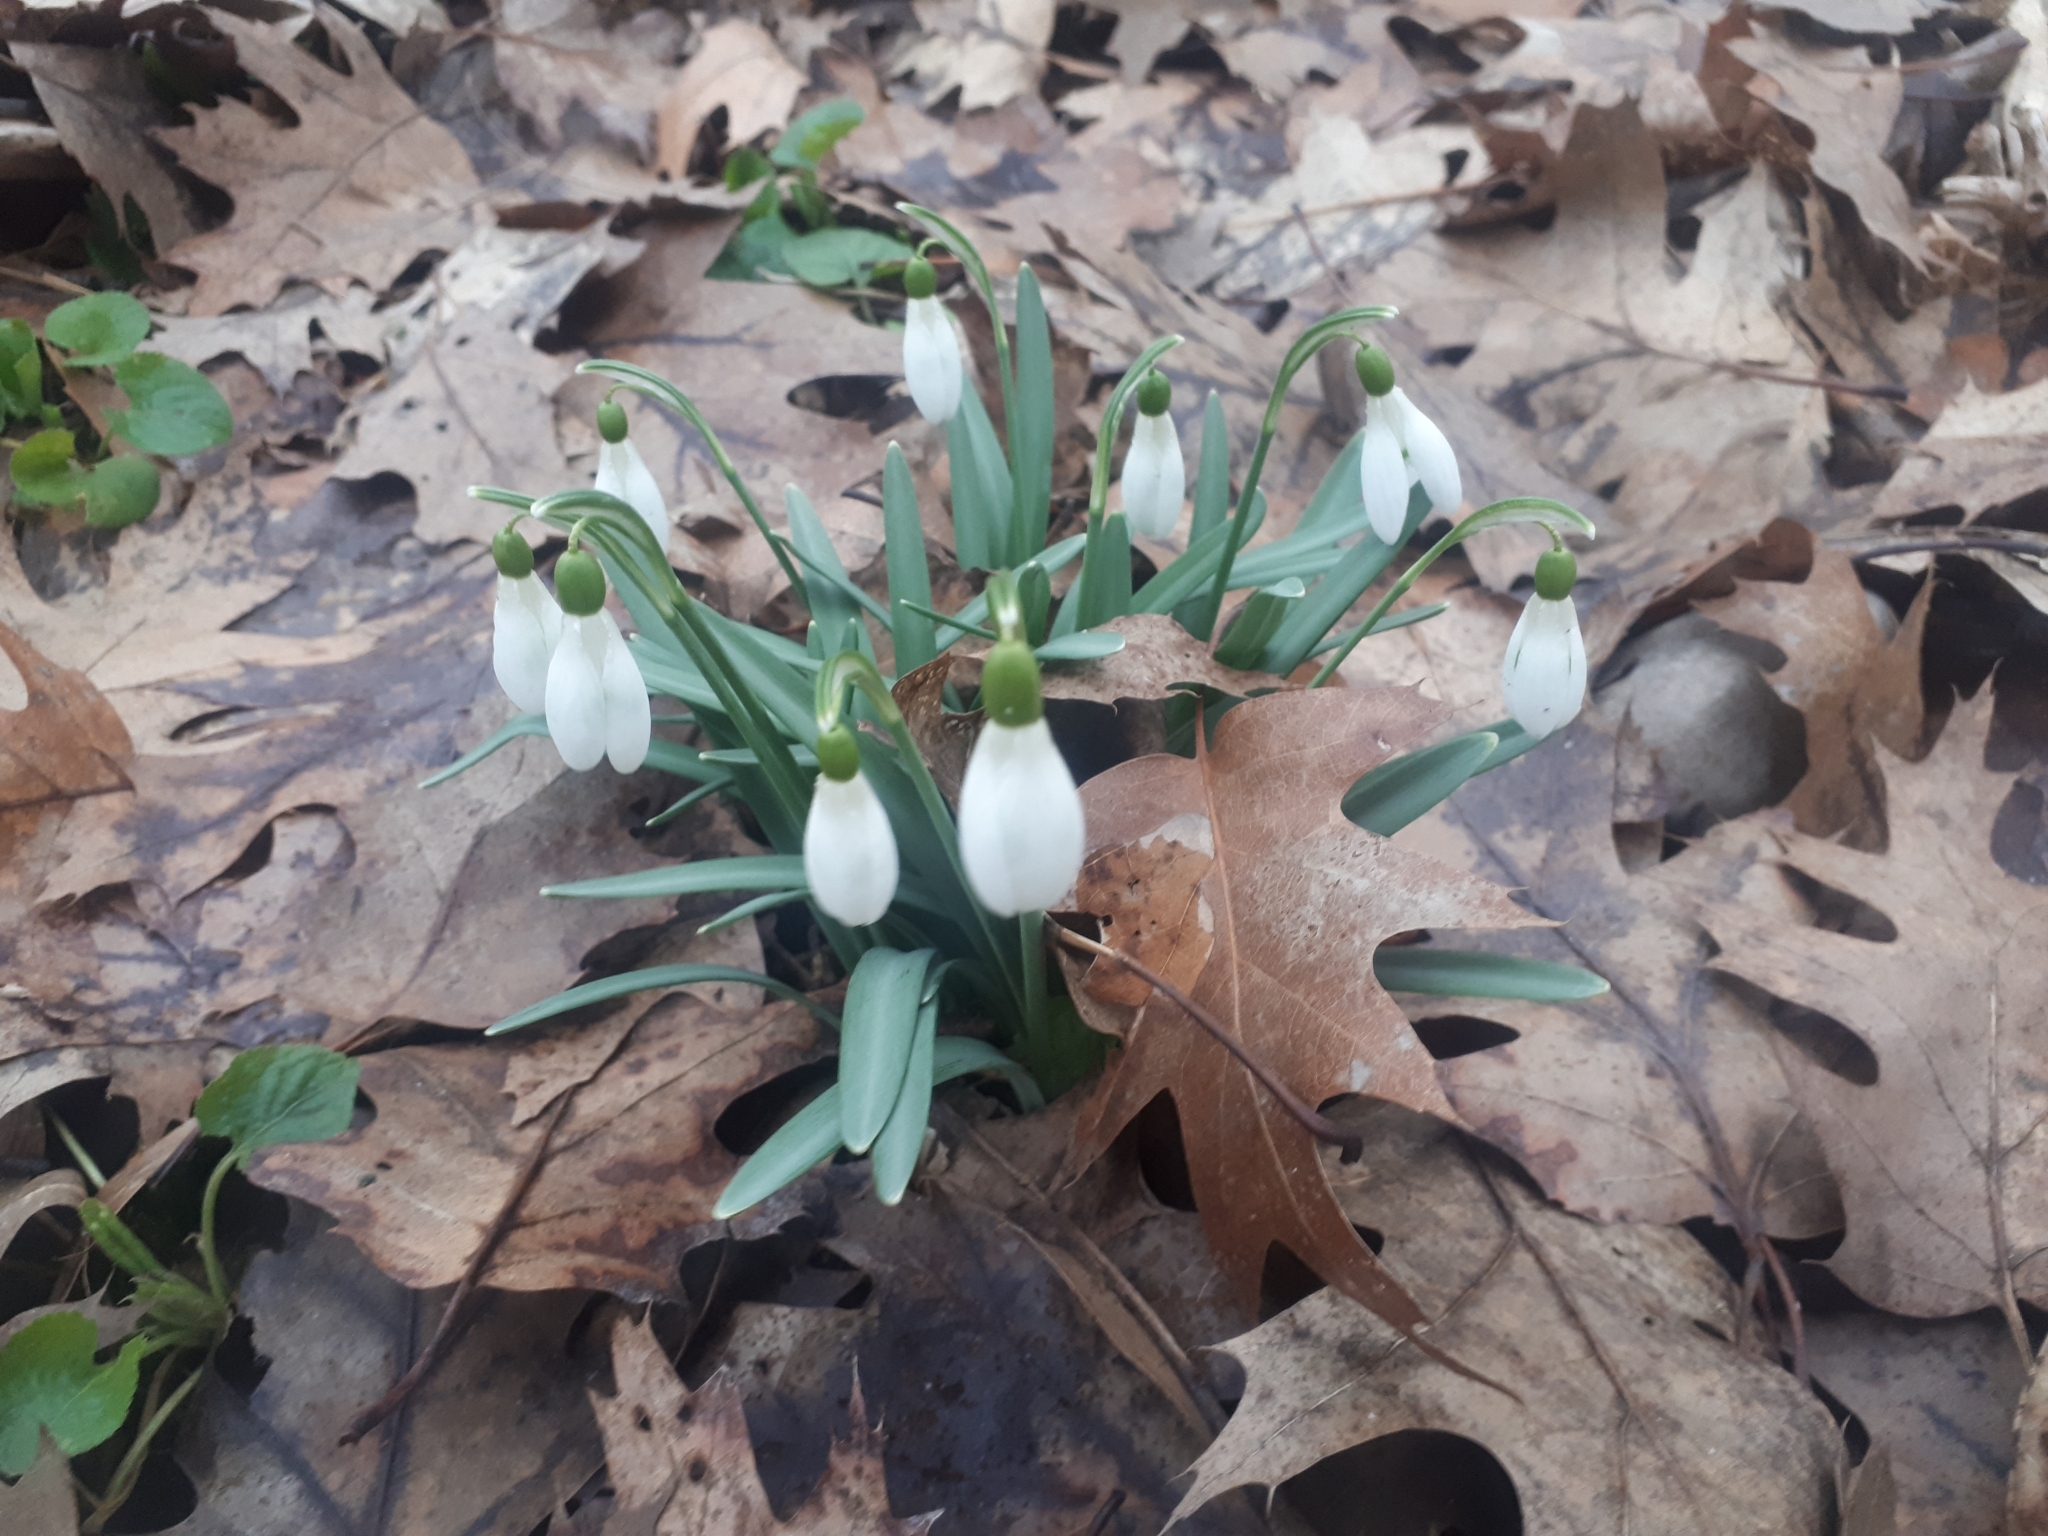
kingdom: Plantae
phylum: Tracheophyta
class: Liliopsida
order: Asparagales
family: Amaryllidaceae
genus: Galanthus
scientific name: Galanthus nivalis
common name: Snowdrop
